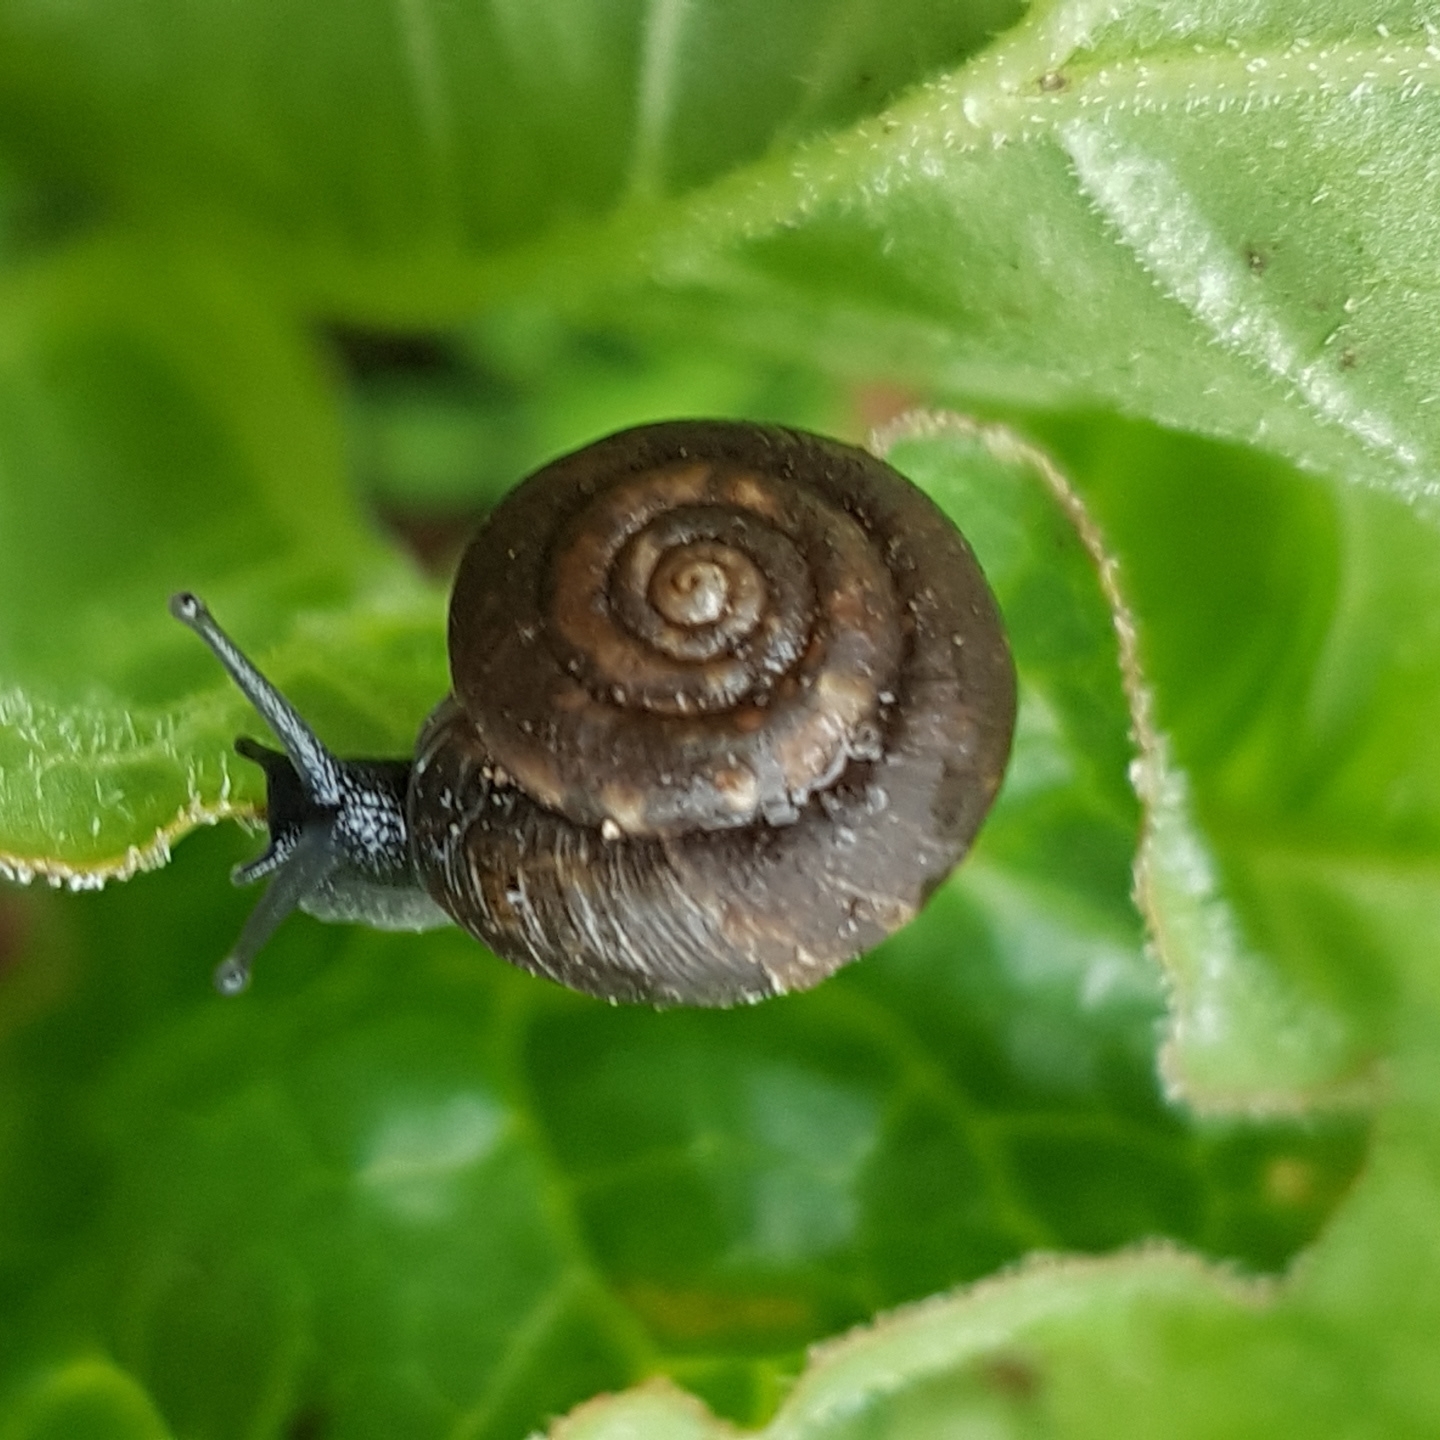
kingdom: Animalia
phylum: Mollusca
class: Gastropoda
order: Stylommatophora
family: Hygromiidae
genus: Trochulus
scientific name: Trochulus striolatus
